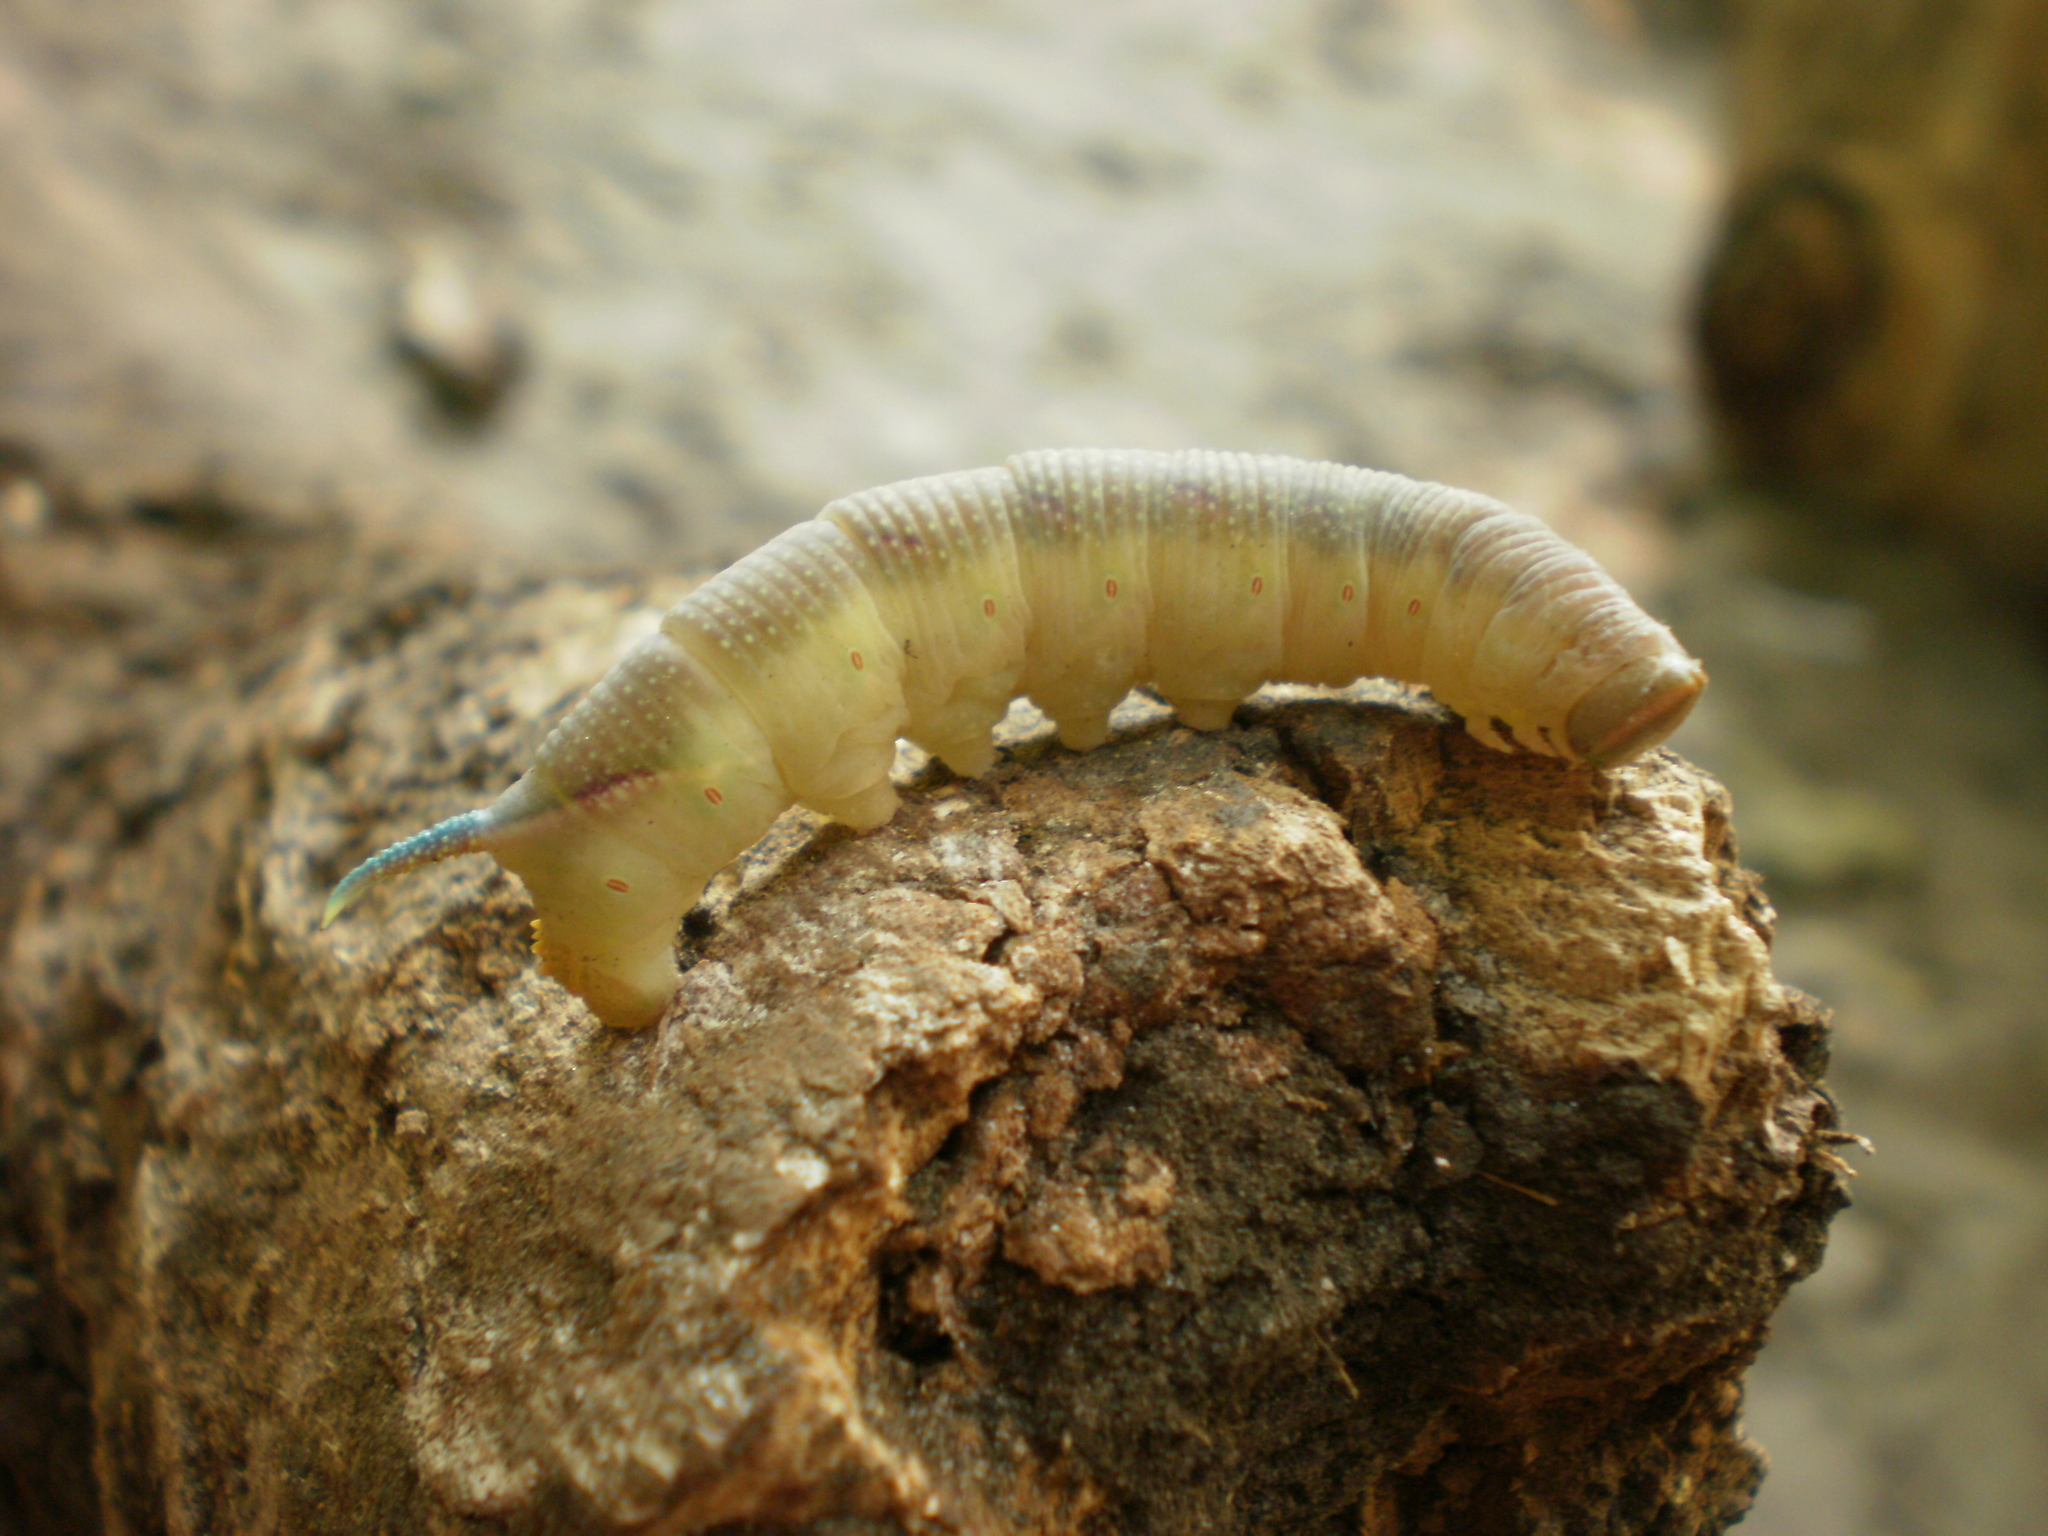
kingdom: Animalia
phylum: Arthropoda
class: Insecta
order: Lepidoptera
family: Sphingidae
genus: Mimas
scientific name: Mimas tiliae
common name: Lime hawk-moth
